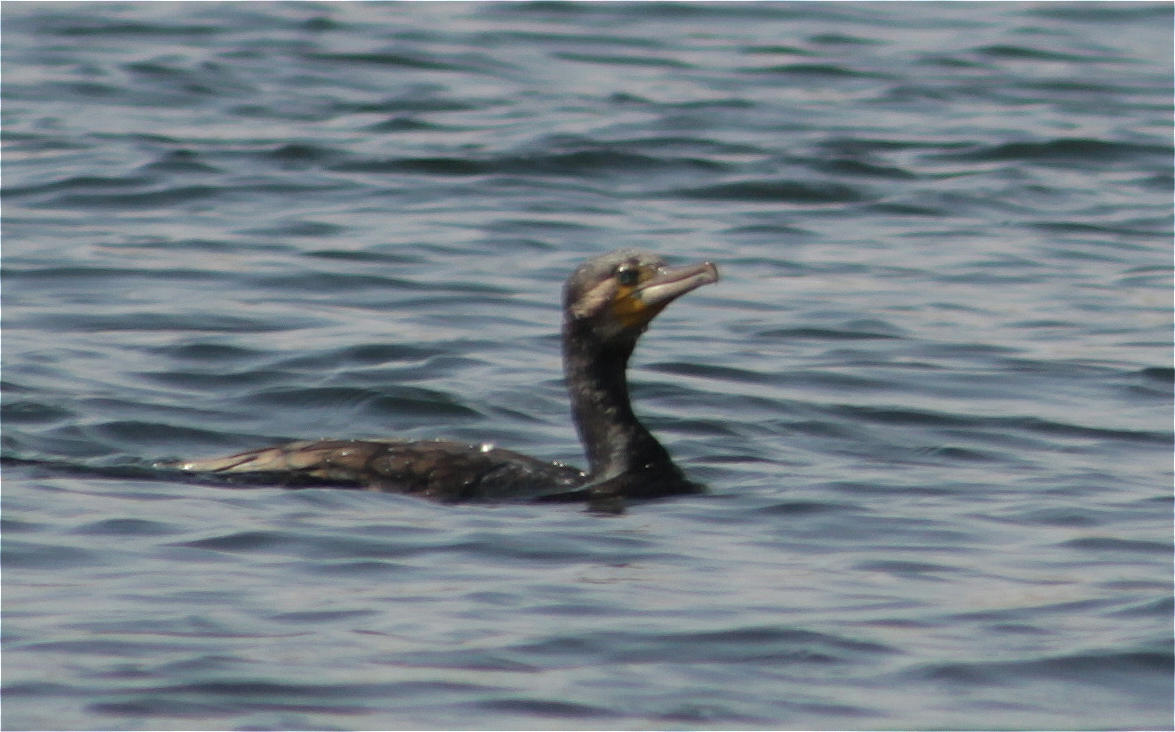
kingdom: Animalia
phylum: Chordata
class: Aves
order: Suliformes
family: Phalacrocoracidae
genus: Phalacrocorax
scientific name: Phalacrocorax carbo
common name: Great cormorant
